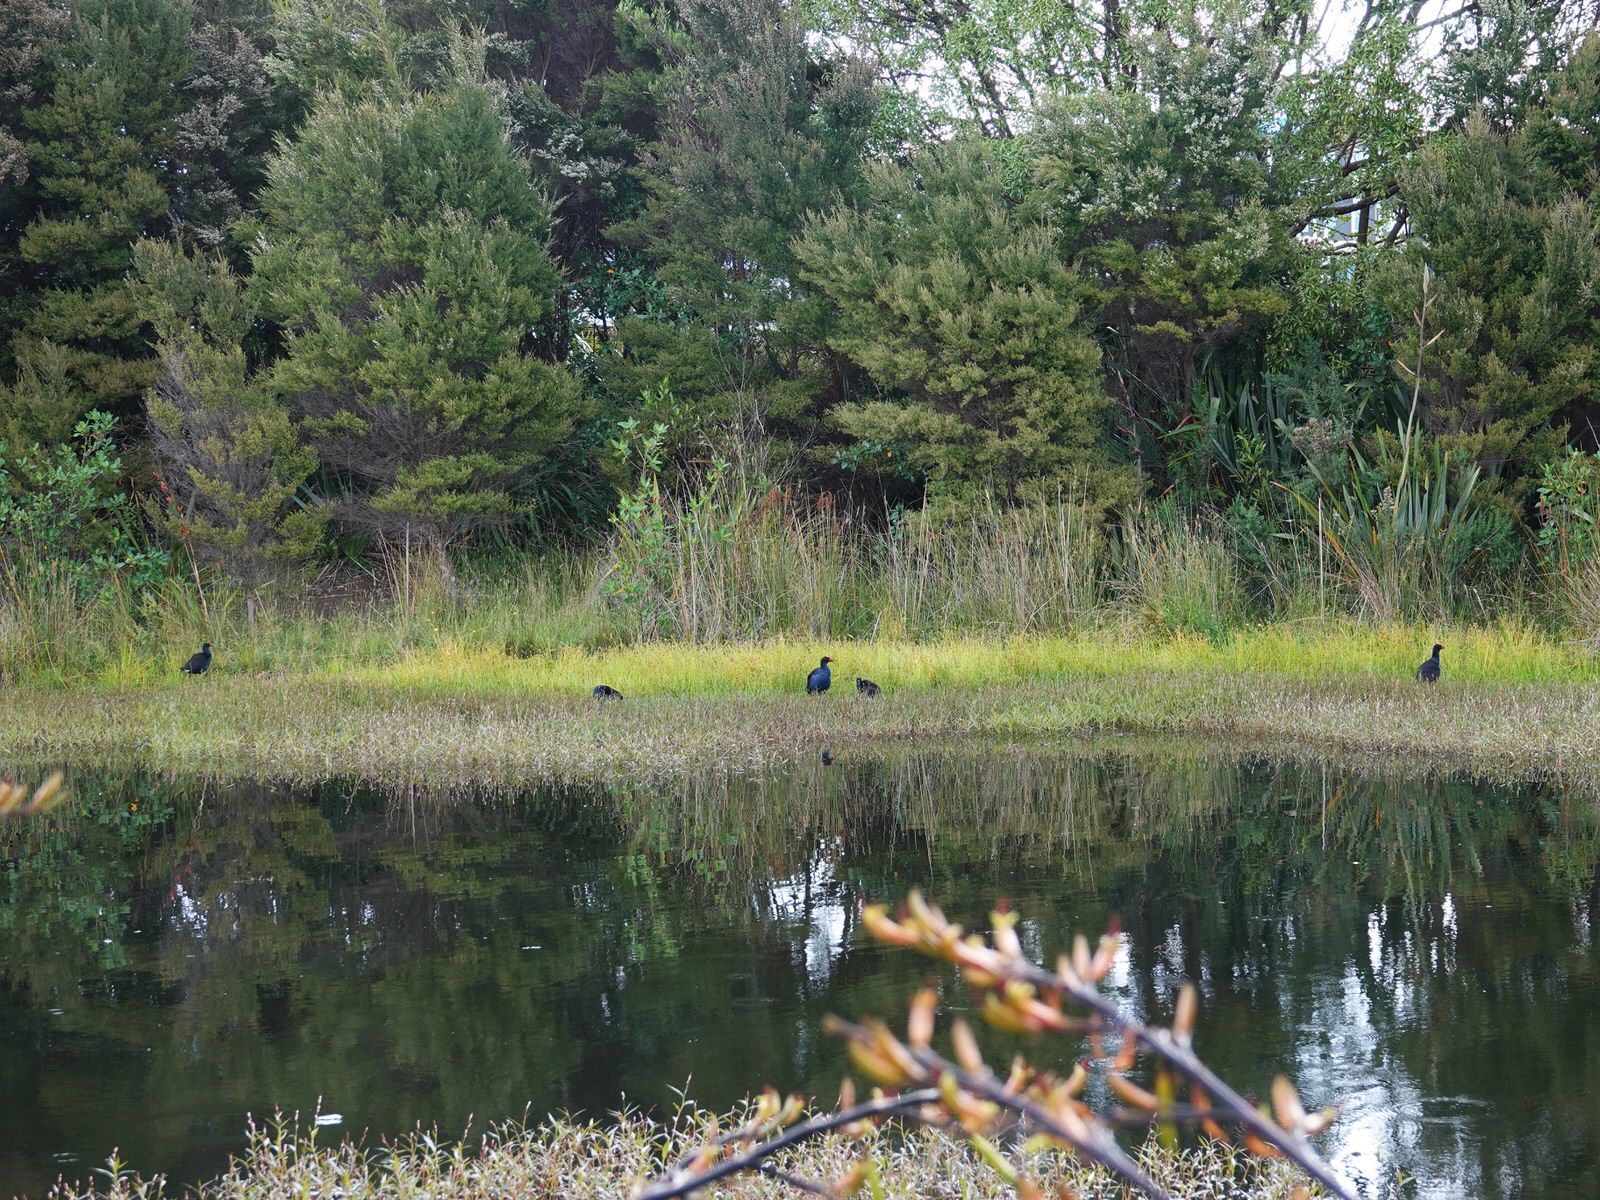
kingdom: Animalia
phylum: Chordata
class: Aves
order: Gruiformes
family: Rallidae
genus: Porphyrio
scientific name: Porphyrio melanotus
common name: Australasian swamphen
